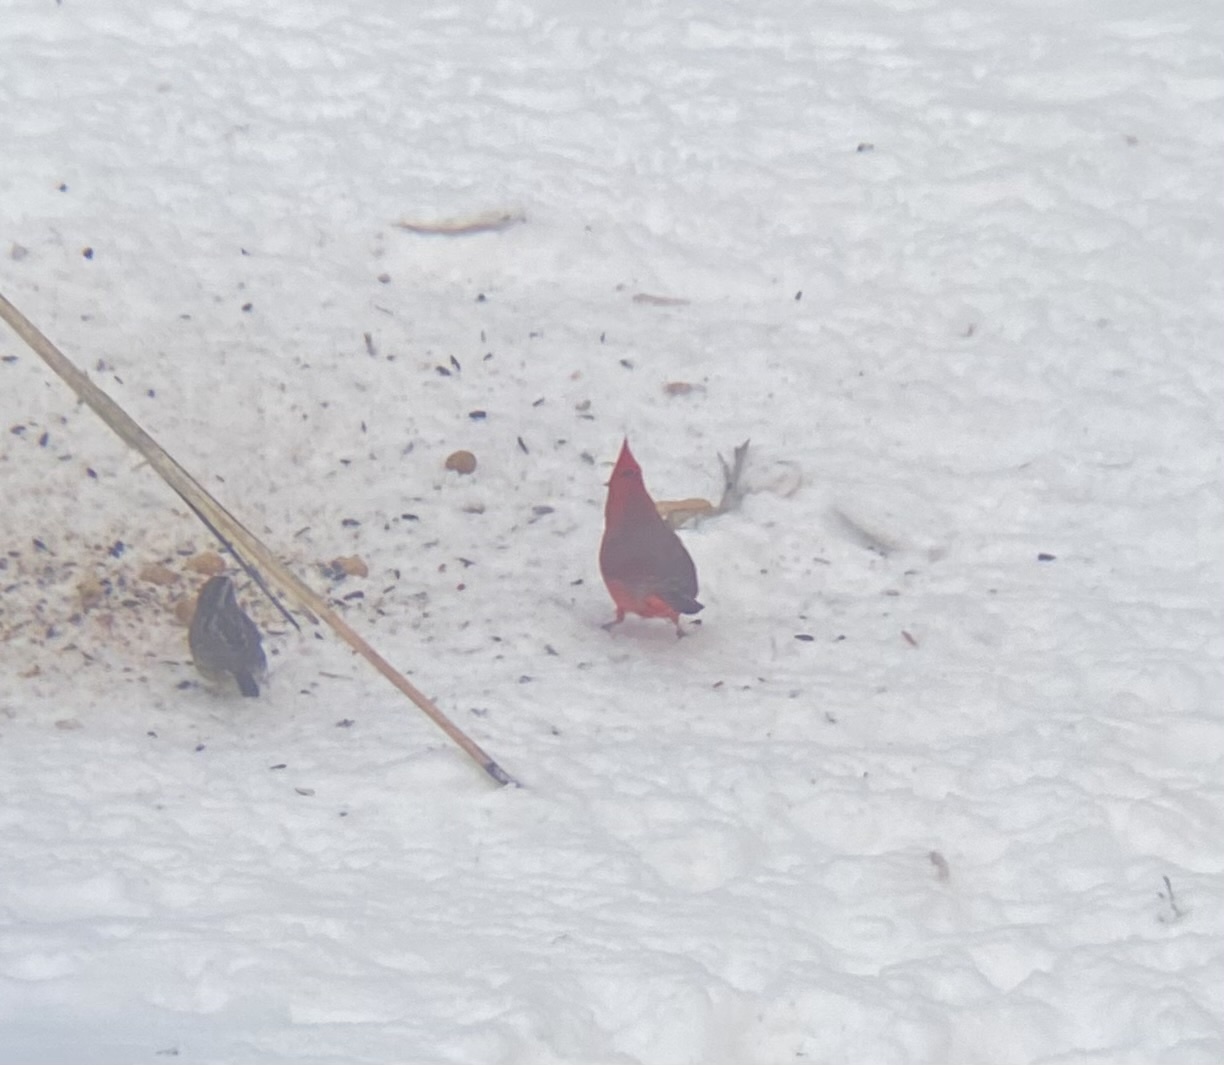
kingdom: Animalia
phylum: Chordata
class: Aves
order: Passeriformes
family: Cardinalidae
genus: Cardinalis
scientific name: Cardinalis cardinalis
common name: Northern cardinal
